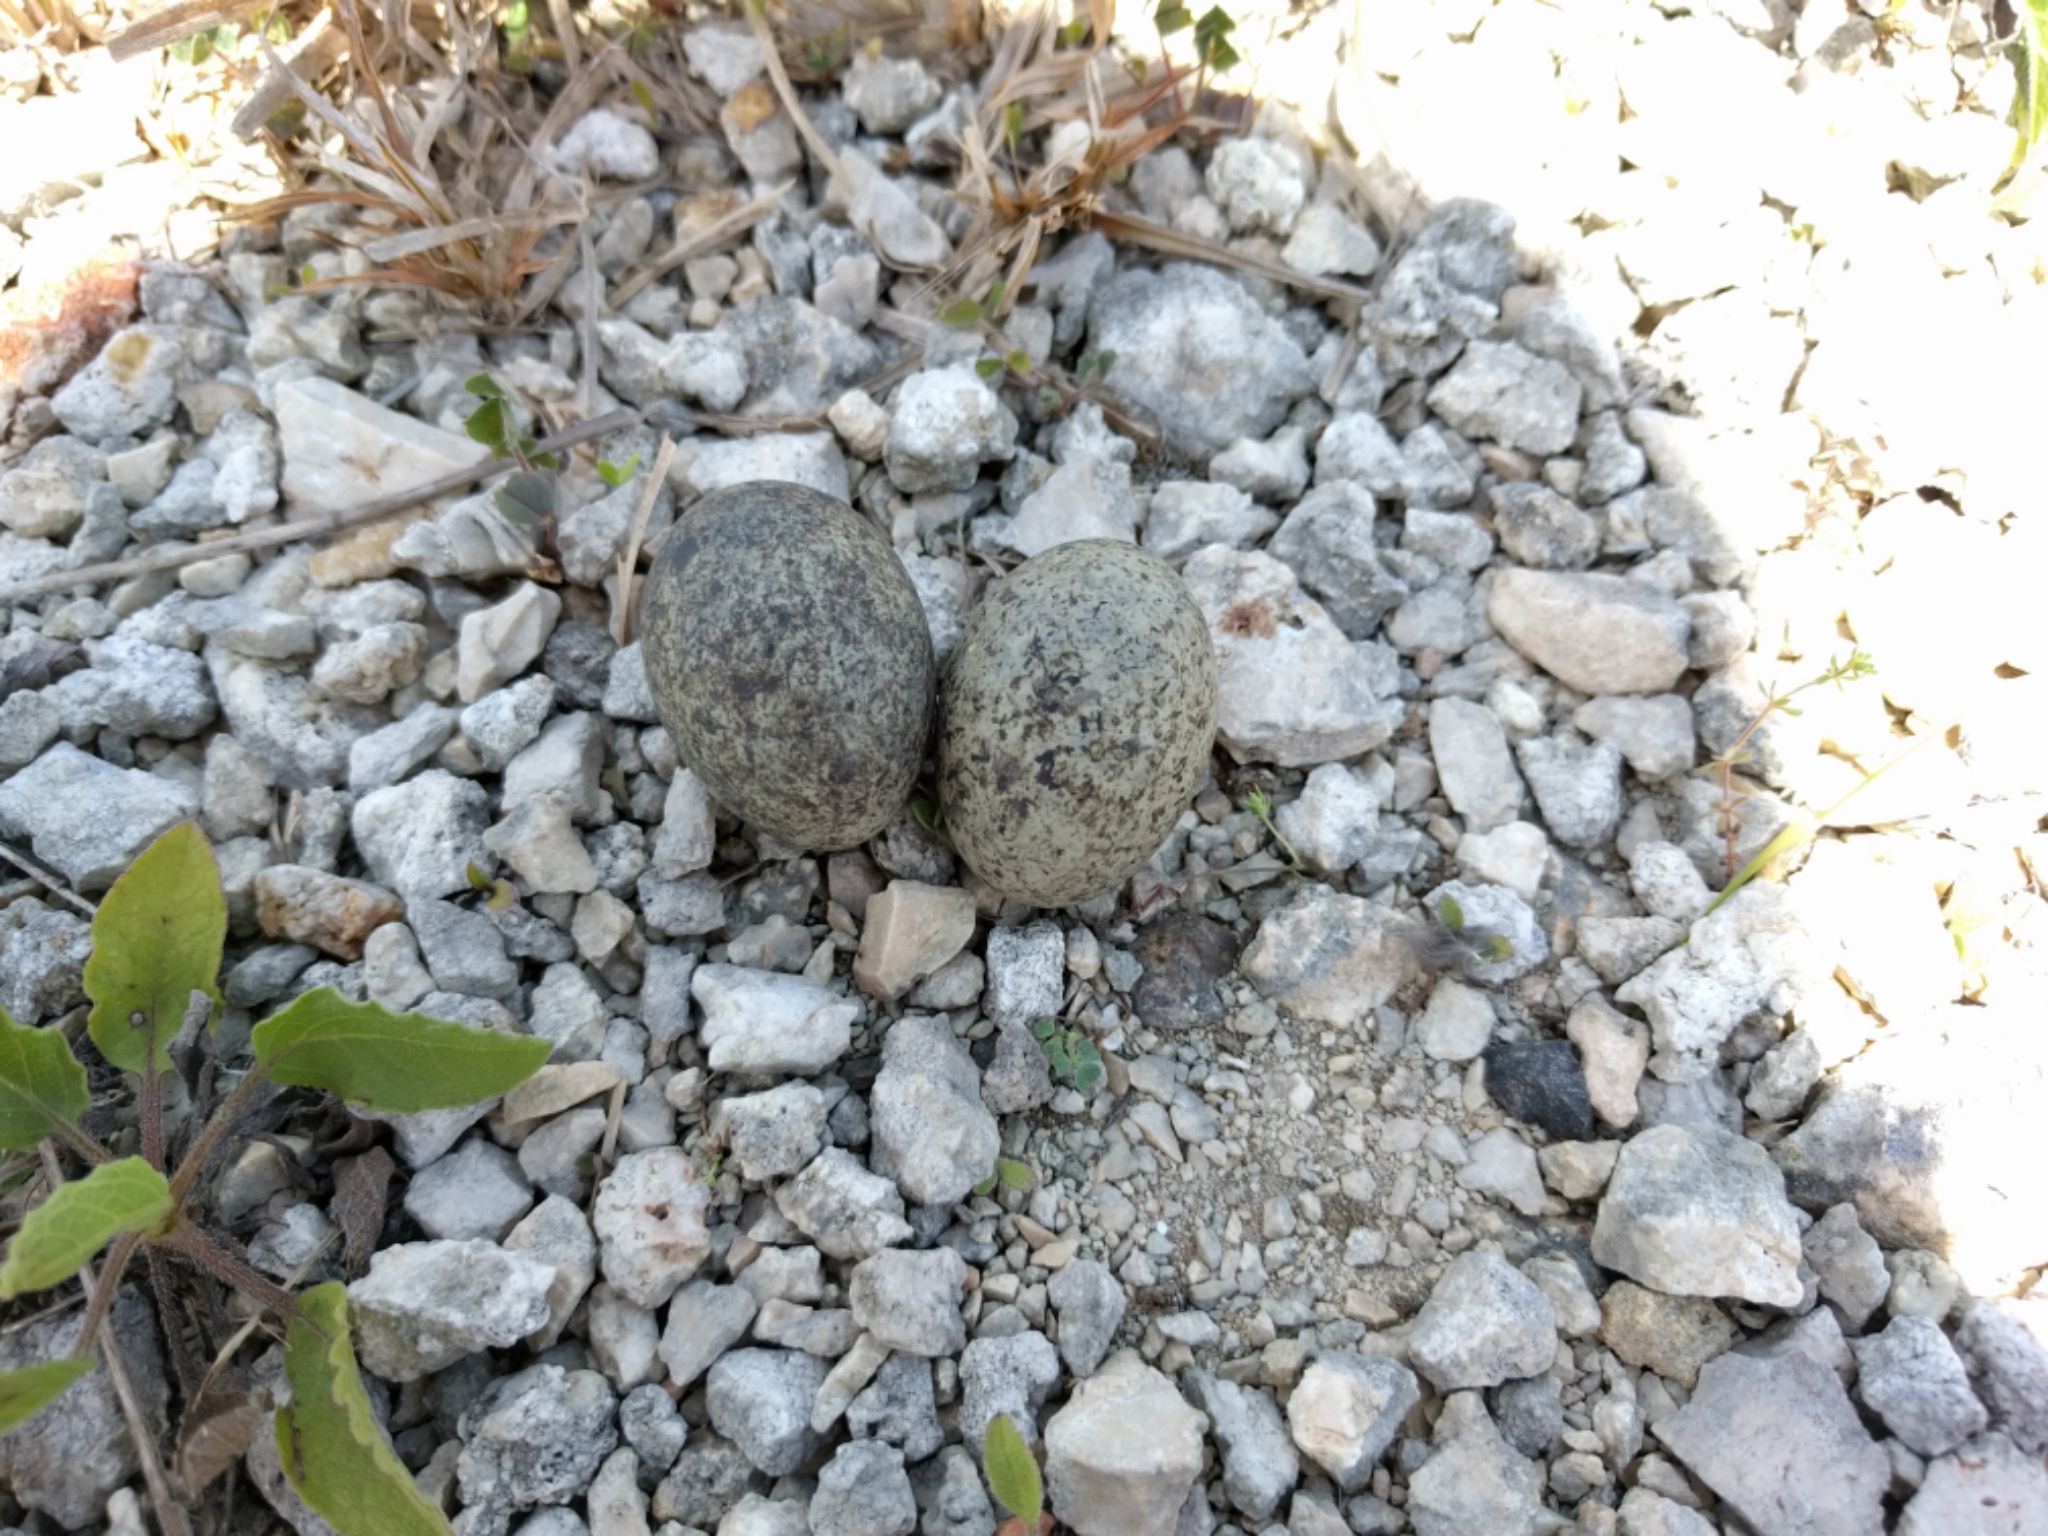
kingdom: Animalia
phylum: Chordata
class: Aves
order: Caprimulgiformes
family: Caprimulgidae
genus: Chordeiles
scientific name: Chordeiles minor
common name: Common nighthawk
